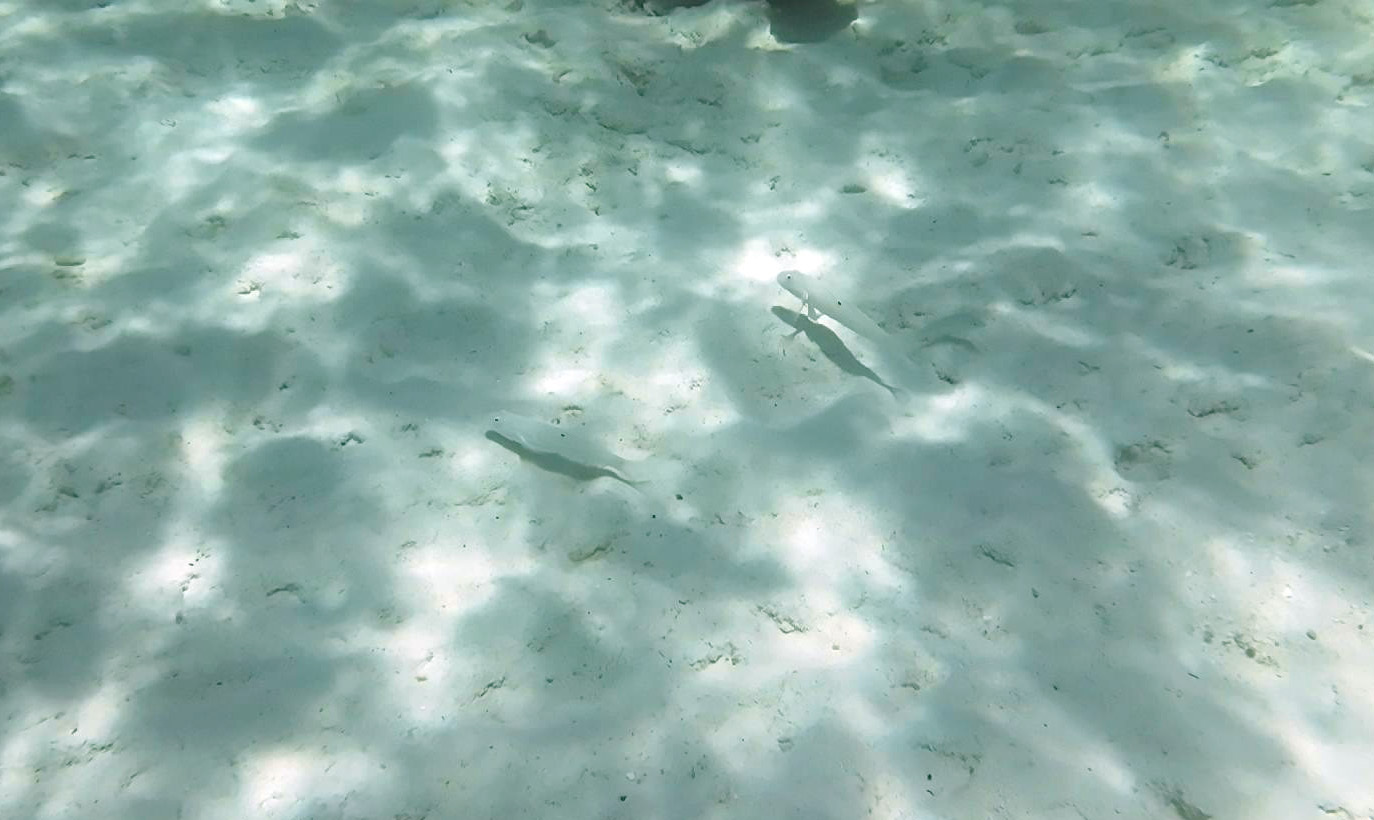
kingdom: Animalia
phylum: Chordata
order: Perciformes
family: Gobiidae
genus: Valenciennea
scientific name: Valenciennea sexguttata
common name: Sixspot goby
